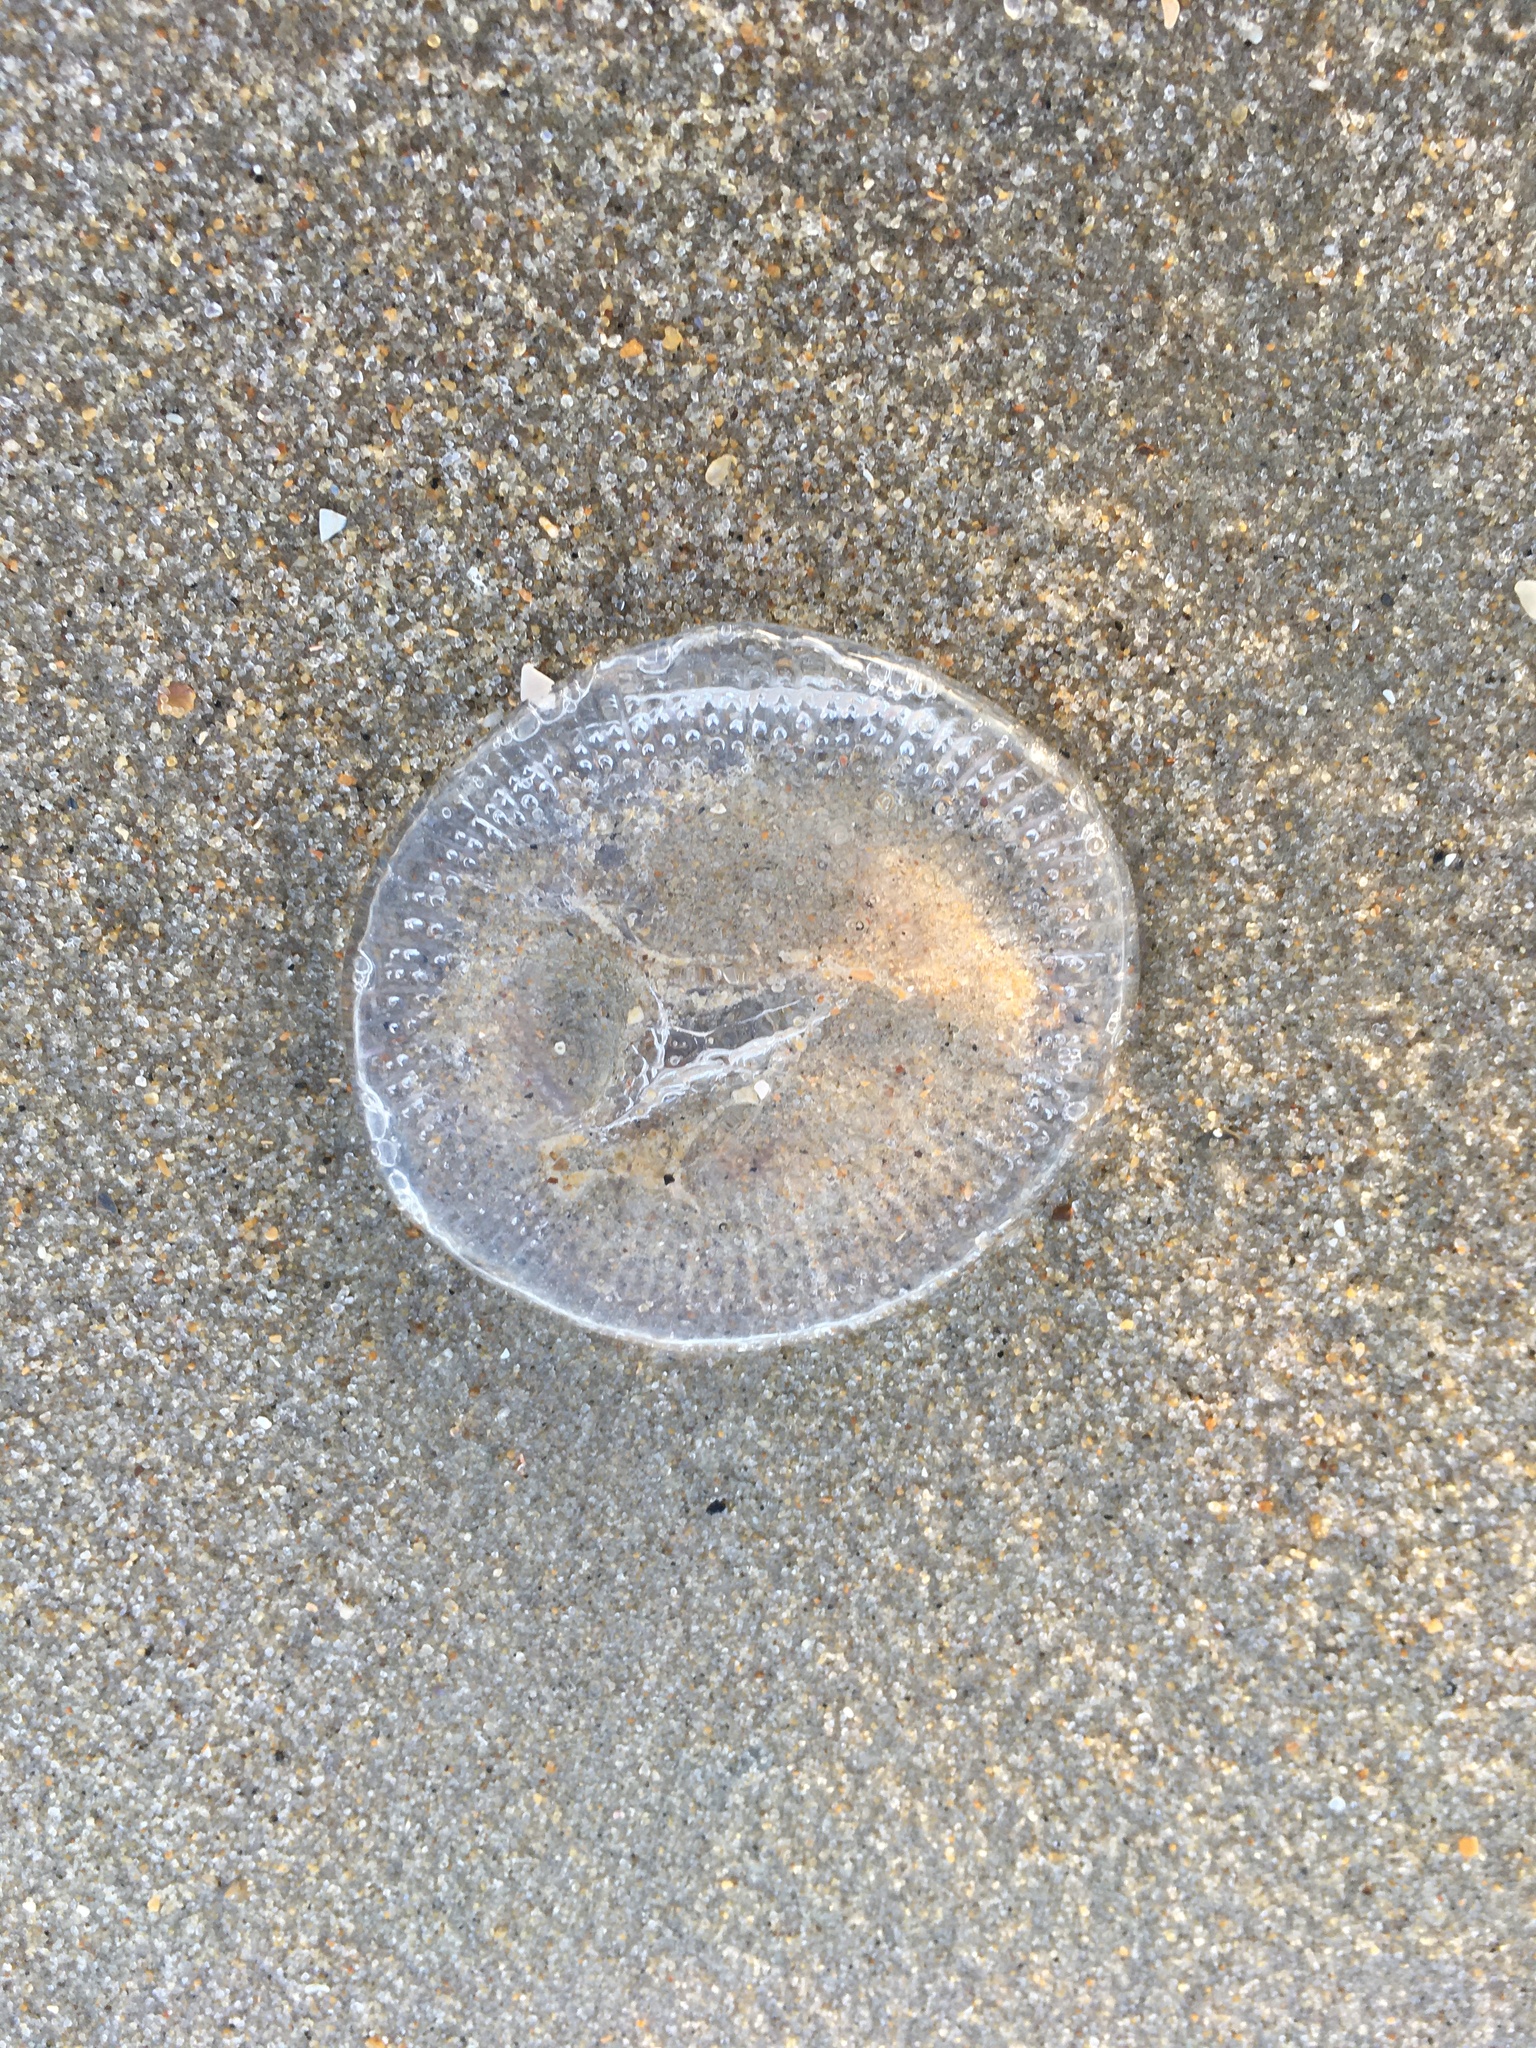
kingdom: Animalia
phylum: Cnidaria
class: Hydrozoa
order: Leptothecata
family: Aequoreidae
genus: Rhacostoma
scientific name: Rhacostoma atlanticum
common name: Lined water jelly
